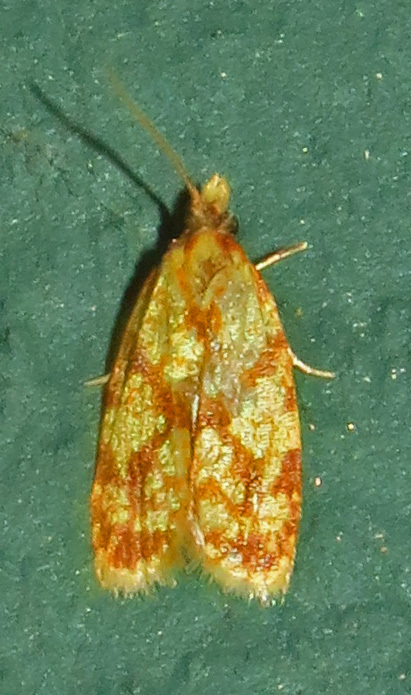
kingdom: Animalia
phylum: Arthropoda
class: Insecta
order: Lepidoptera
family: Tortricidae
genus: Sparganothis
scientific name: Sparganothis sulfureana
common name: Sparganothis fruitworm moth
